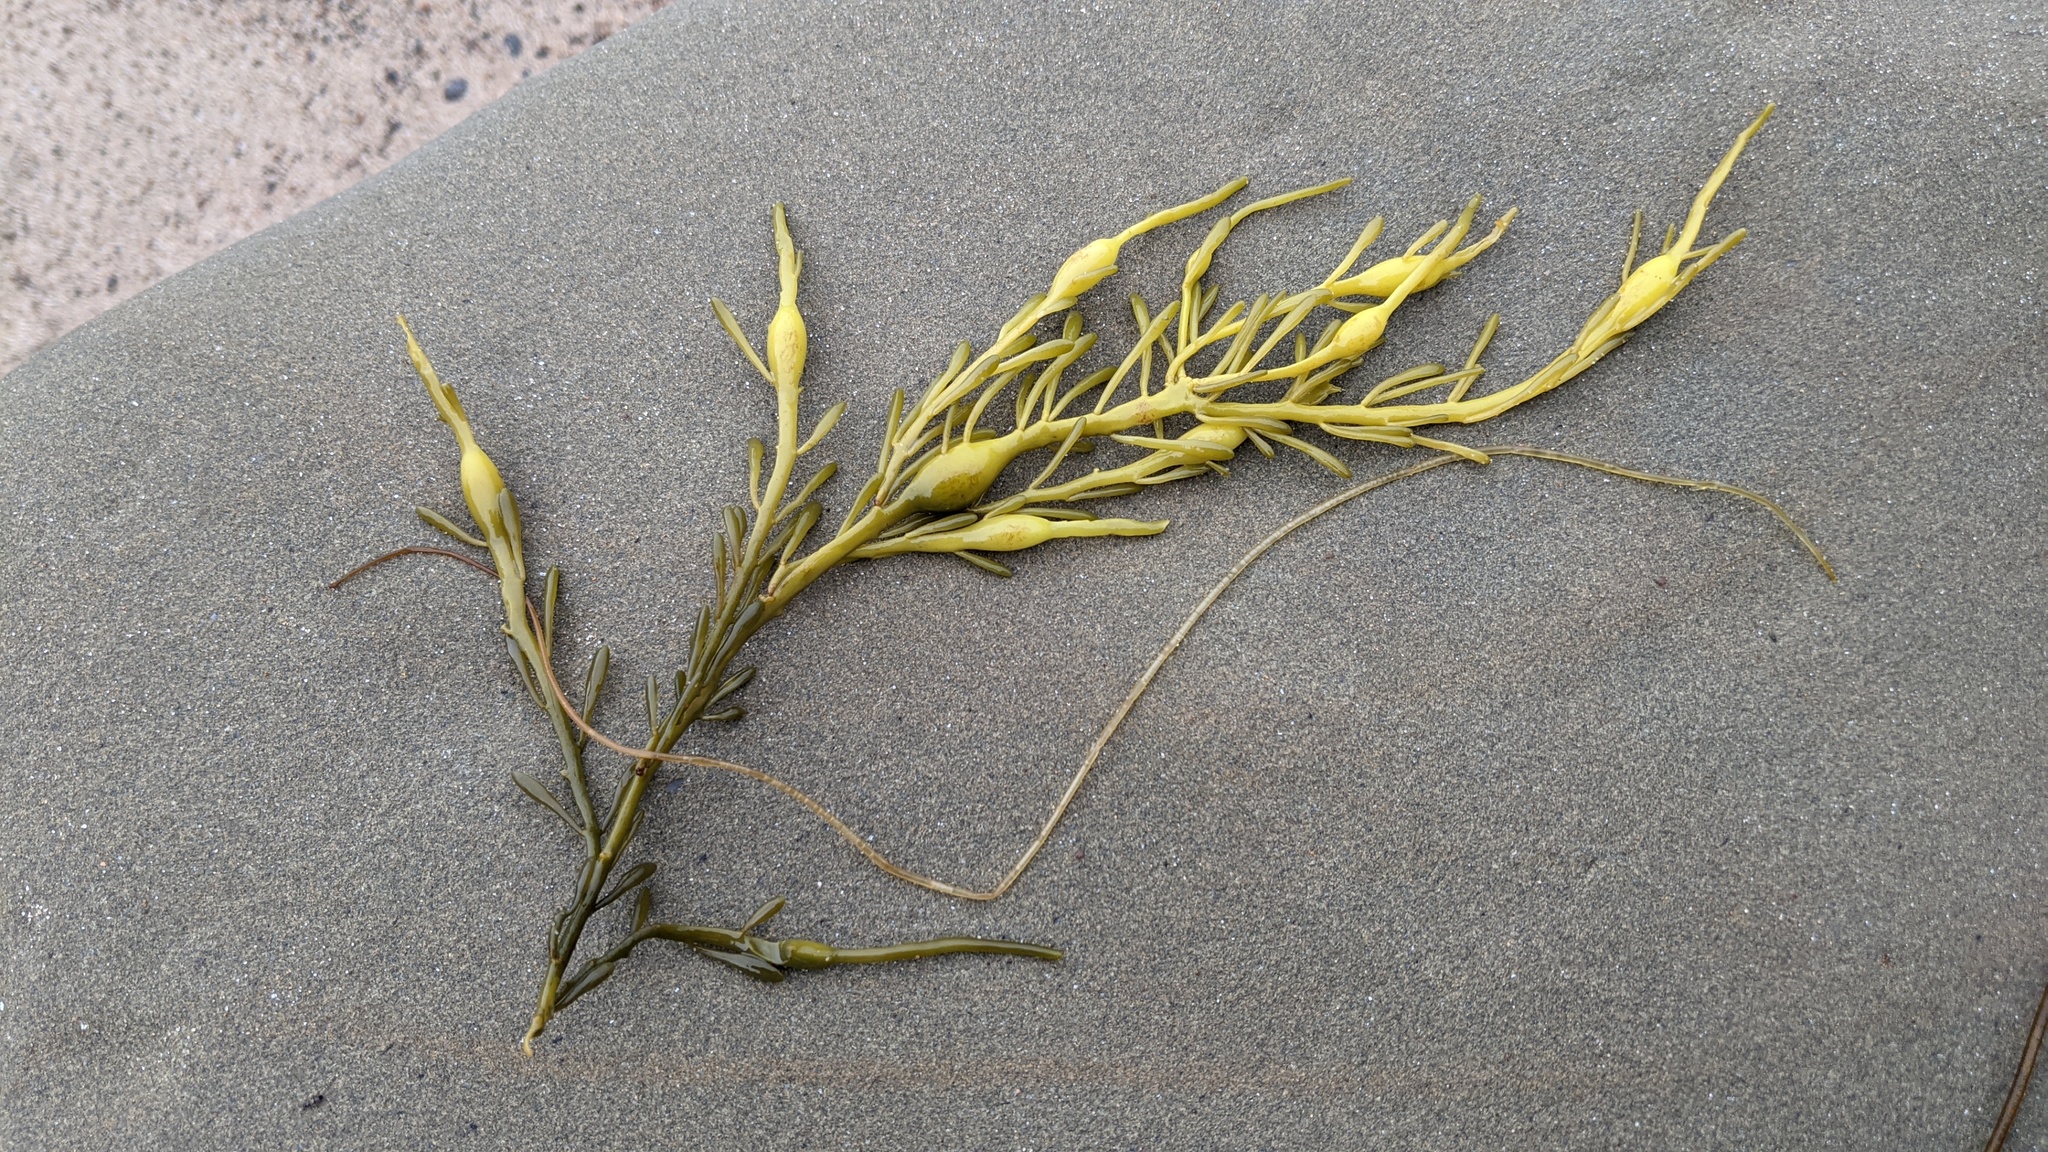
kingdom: Chromista
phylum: Ochrophyta
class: Phaeophyceae
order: Fucales
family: Fucaceae
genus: Ascophyllum
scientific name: Ascophyllum nodosum
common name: Knotted wrack
